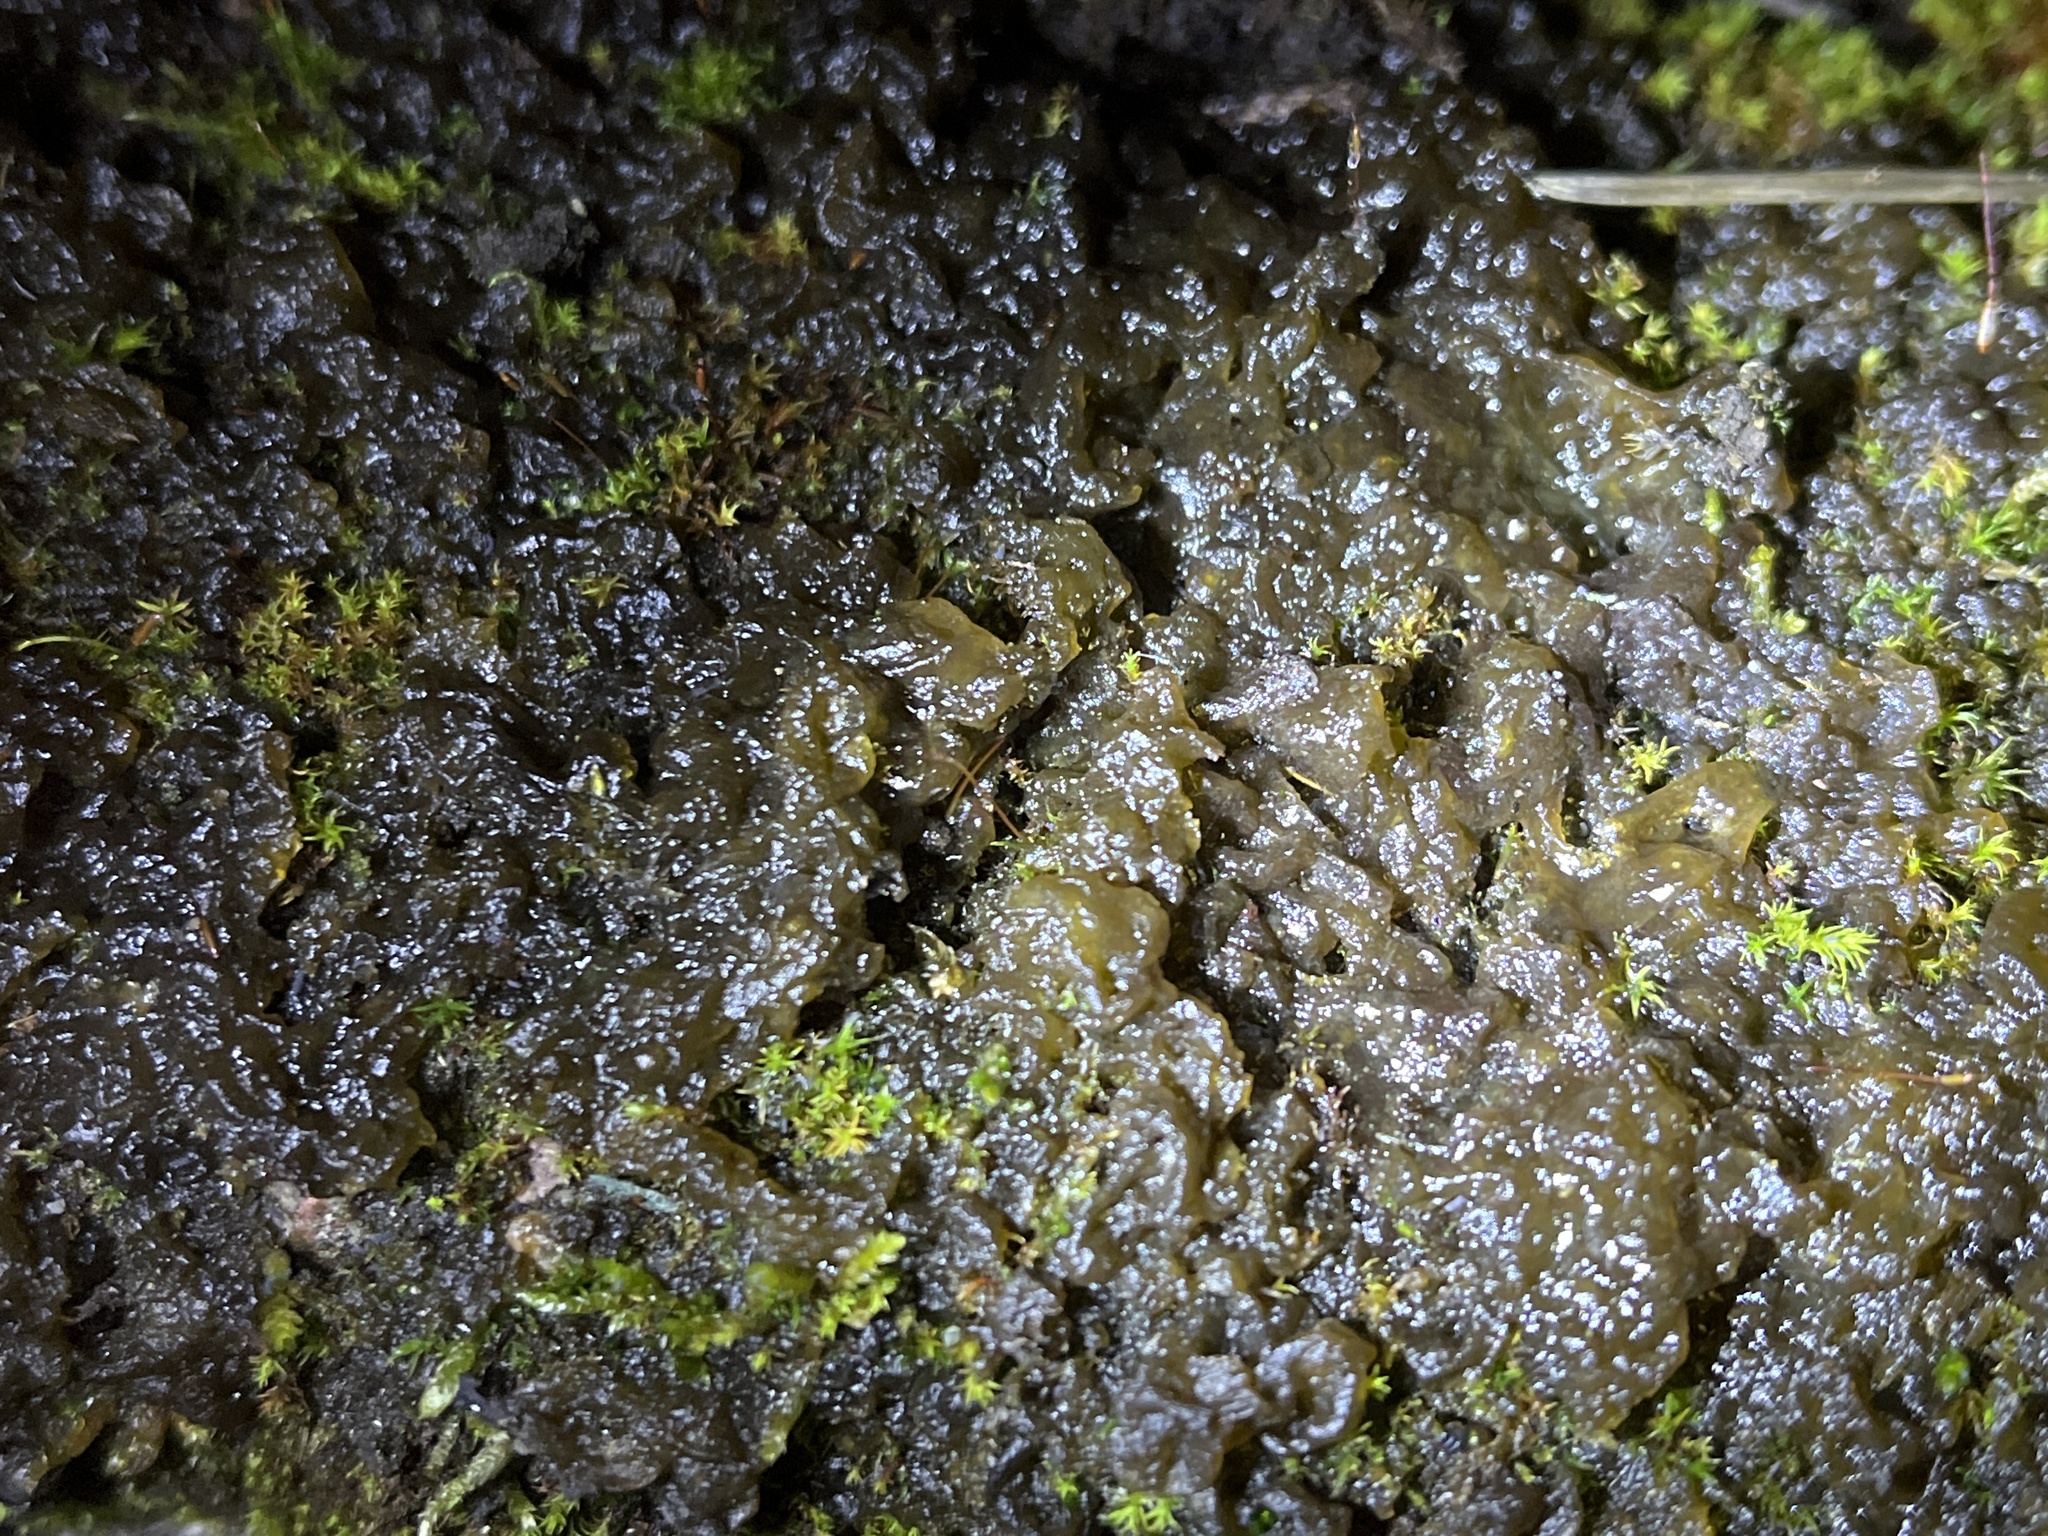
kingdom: Bacteria
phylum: Cyanobacteria
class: Cyanobacteriia
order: Cyanobacteriales
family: Nostocaceae
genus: Nostoc
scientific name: Nostoc commune
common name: Star jelly
